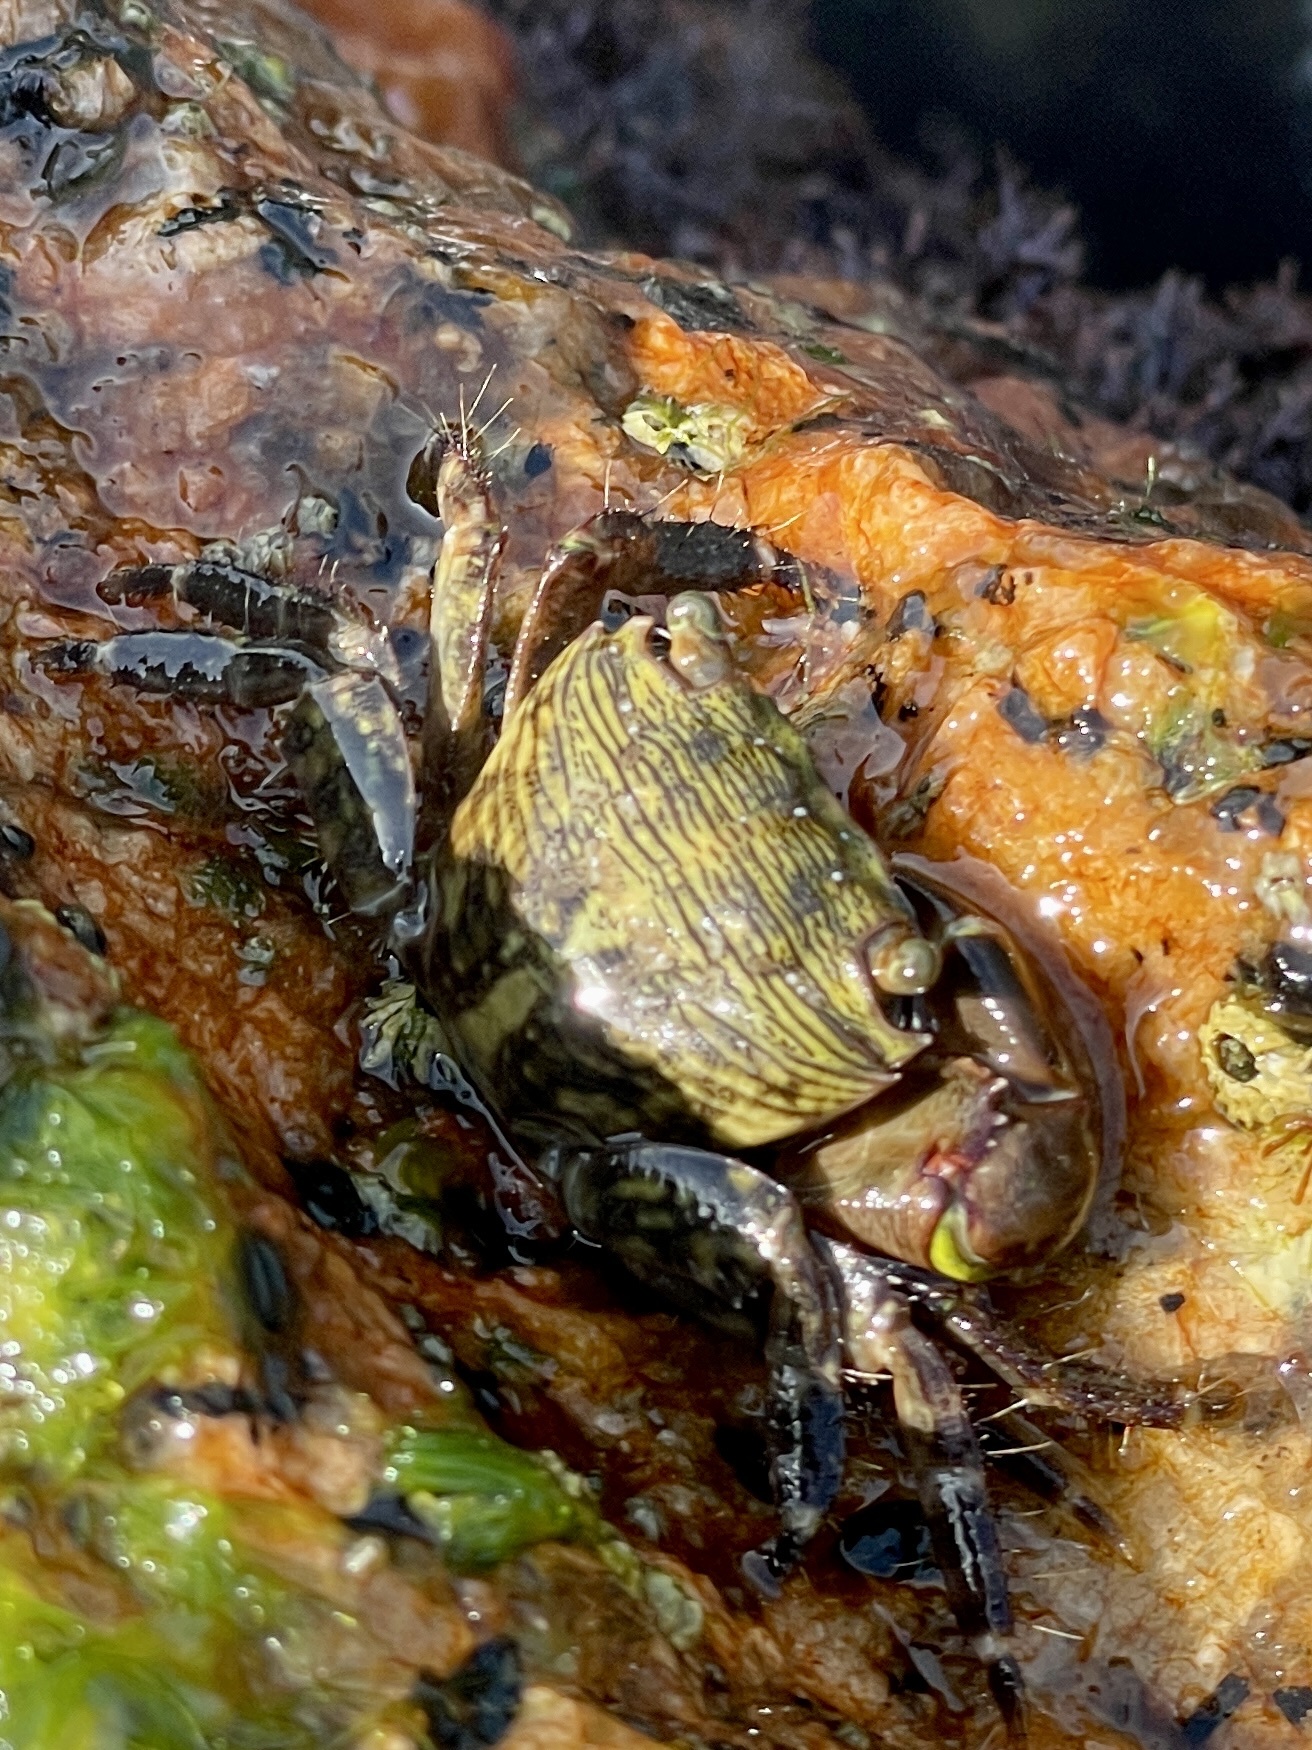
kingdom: Animalia
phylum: Arthropoda
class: Malacostraca
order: Decapoda
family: Grapsidae
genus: Pachygrapsus
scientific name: Pachygrapsus transversus
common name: Mottled shore crab
